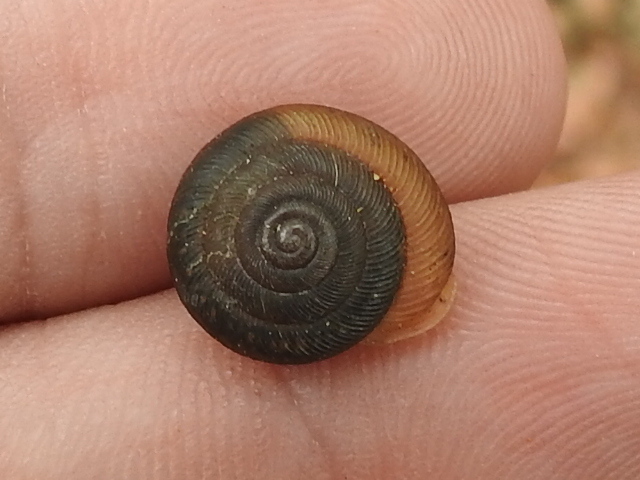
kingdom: Animalia
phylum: Mollusca
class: Gastropoda
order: Stylommatophora
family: Polygyridae
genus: Triodopsis
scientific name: Triodopsis hopetonensis
